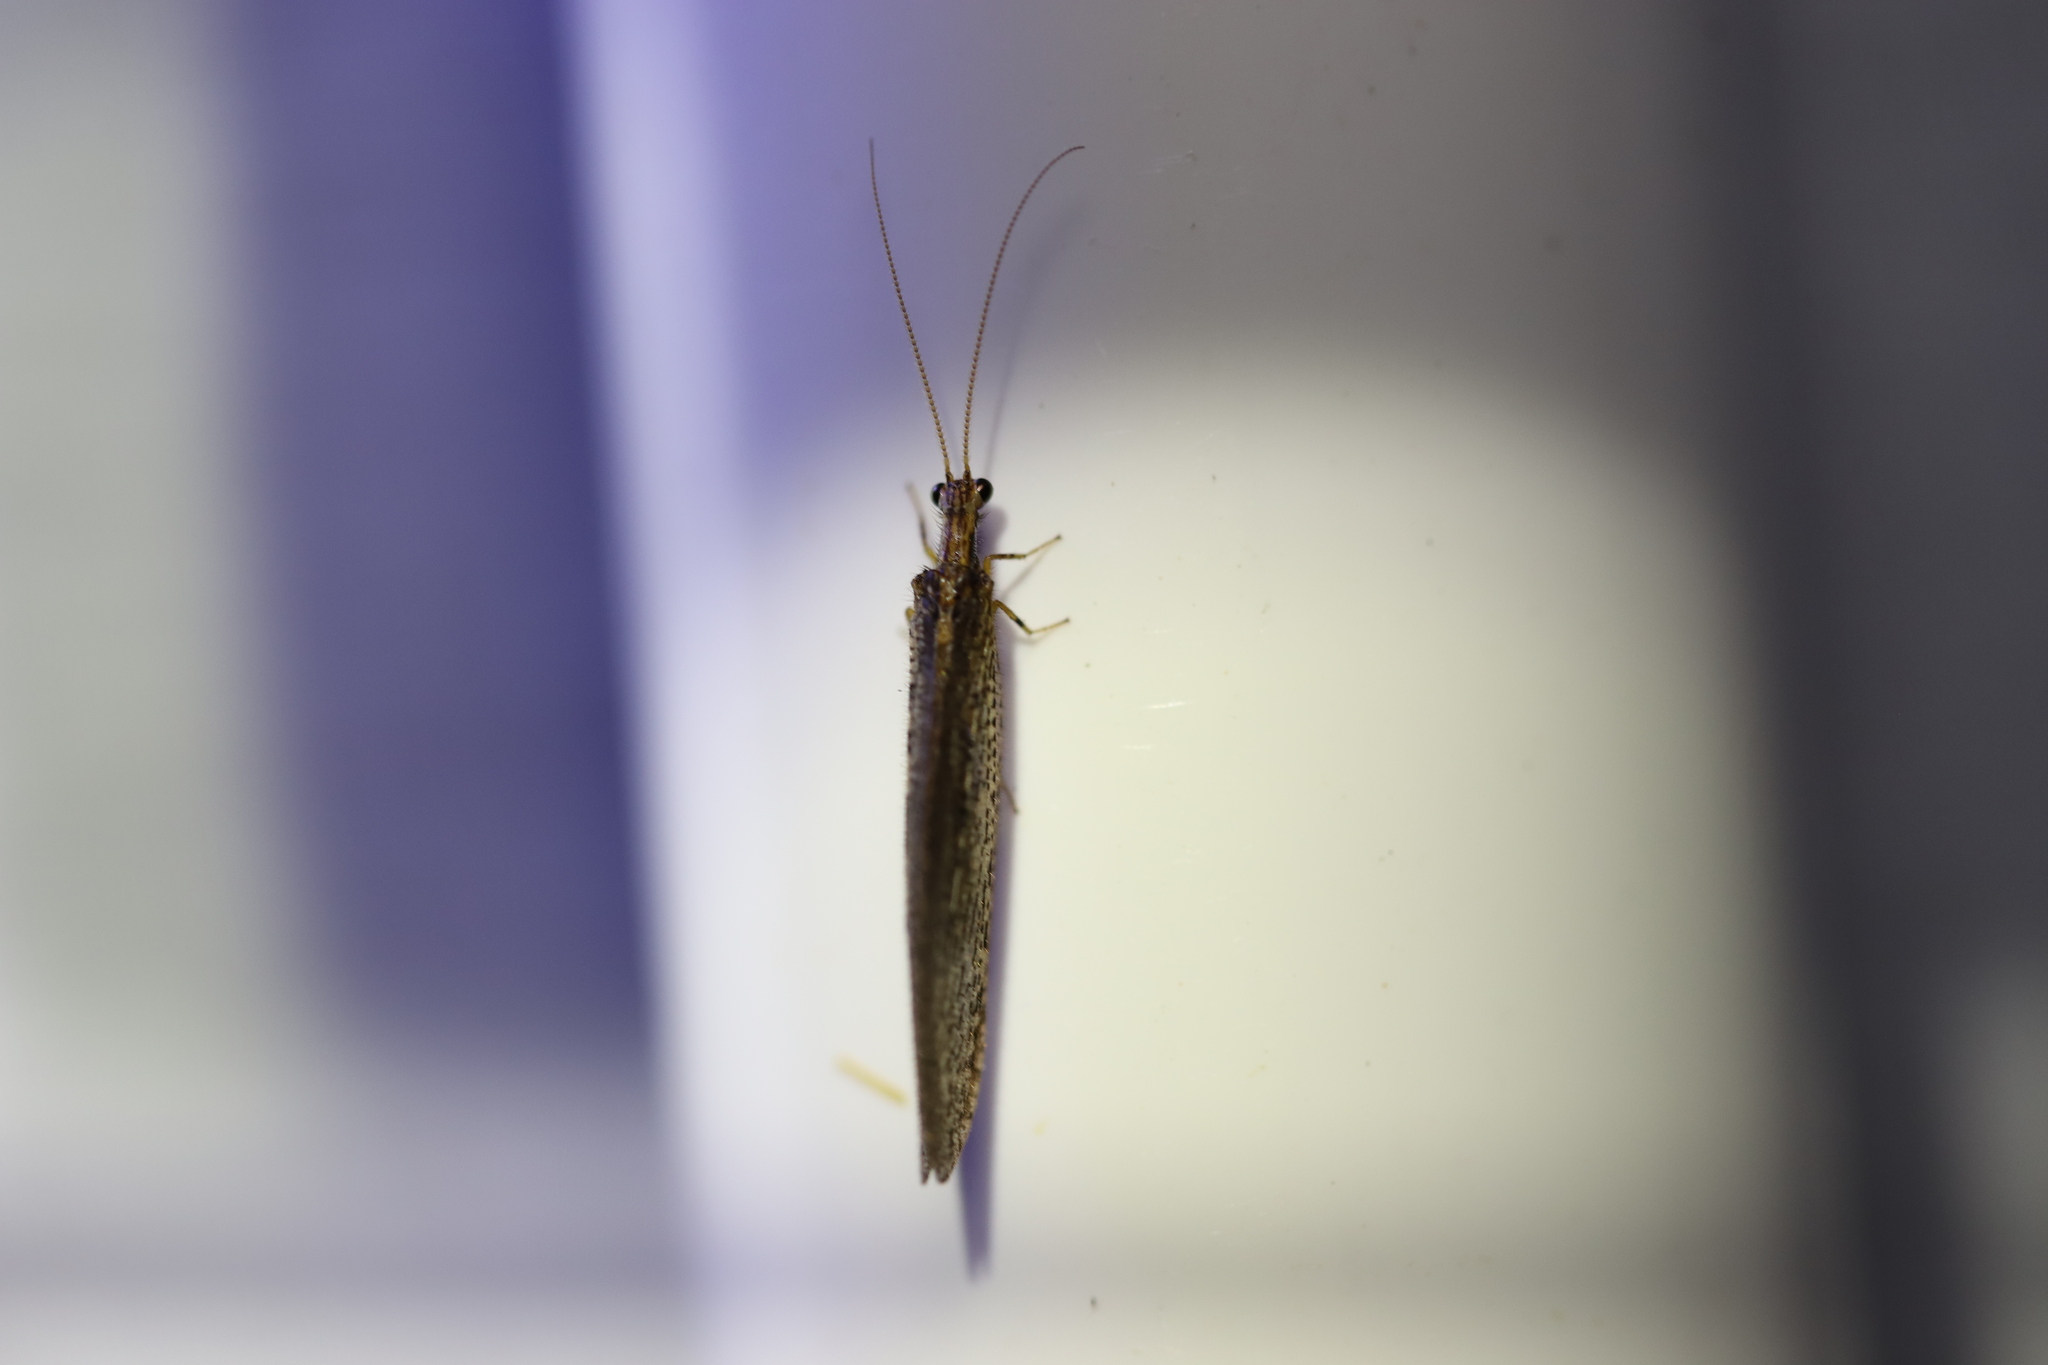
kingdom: Animalia
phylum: Arthropoda
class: Insecta
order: Neuroptera
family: Osmylidae
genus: Stenosmylus
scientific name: Stenosmylus tenuis
